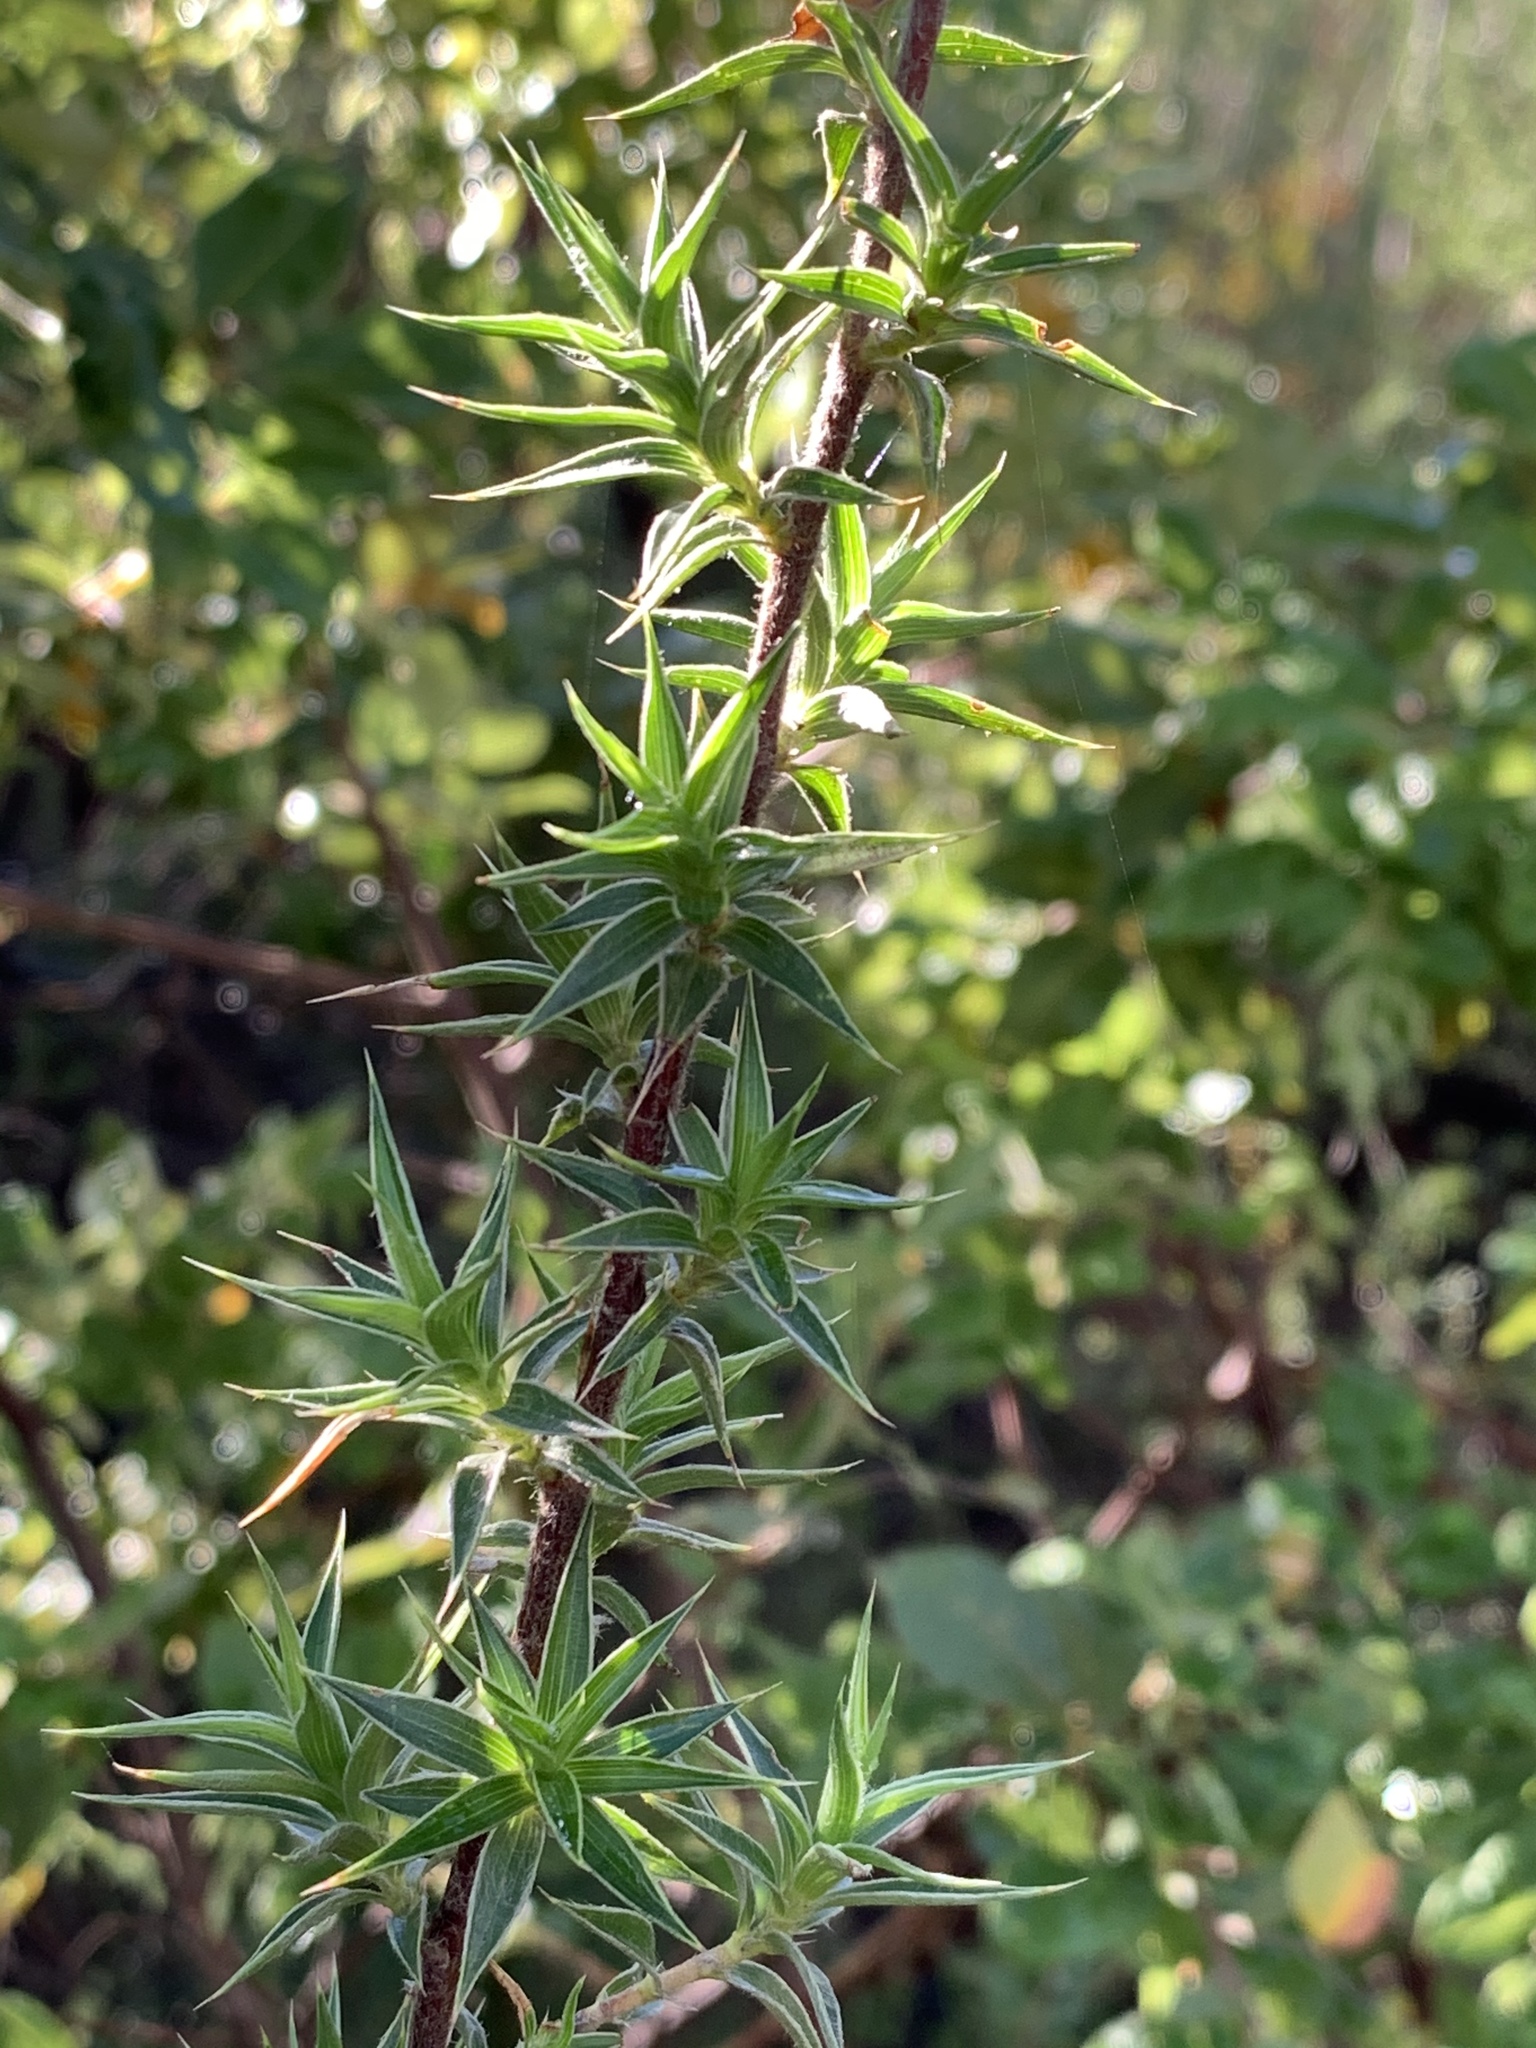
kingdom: Plantae
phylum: Tracheophyta
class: Magnoliopsida
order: Rosales
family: Rosaceae
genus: Cliffortia
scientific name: Cliffortia ruscifolia
